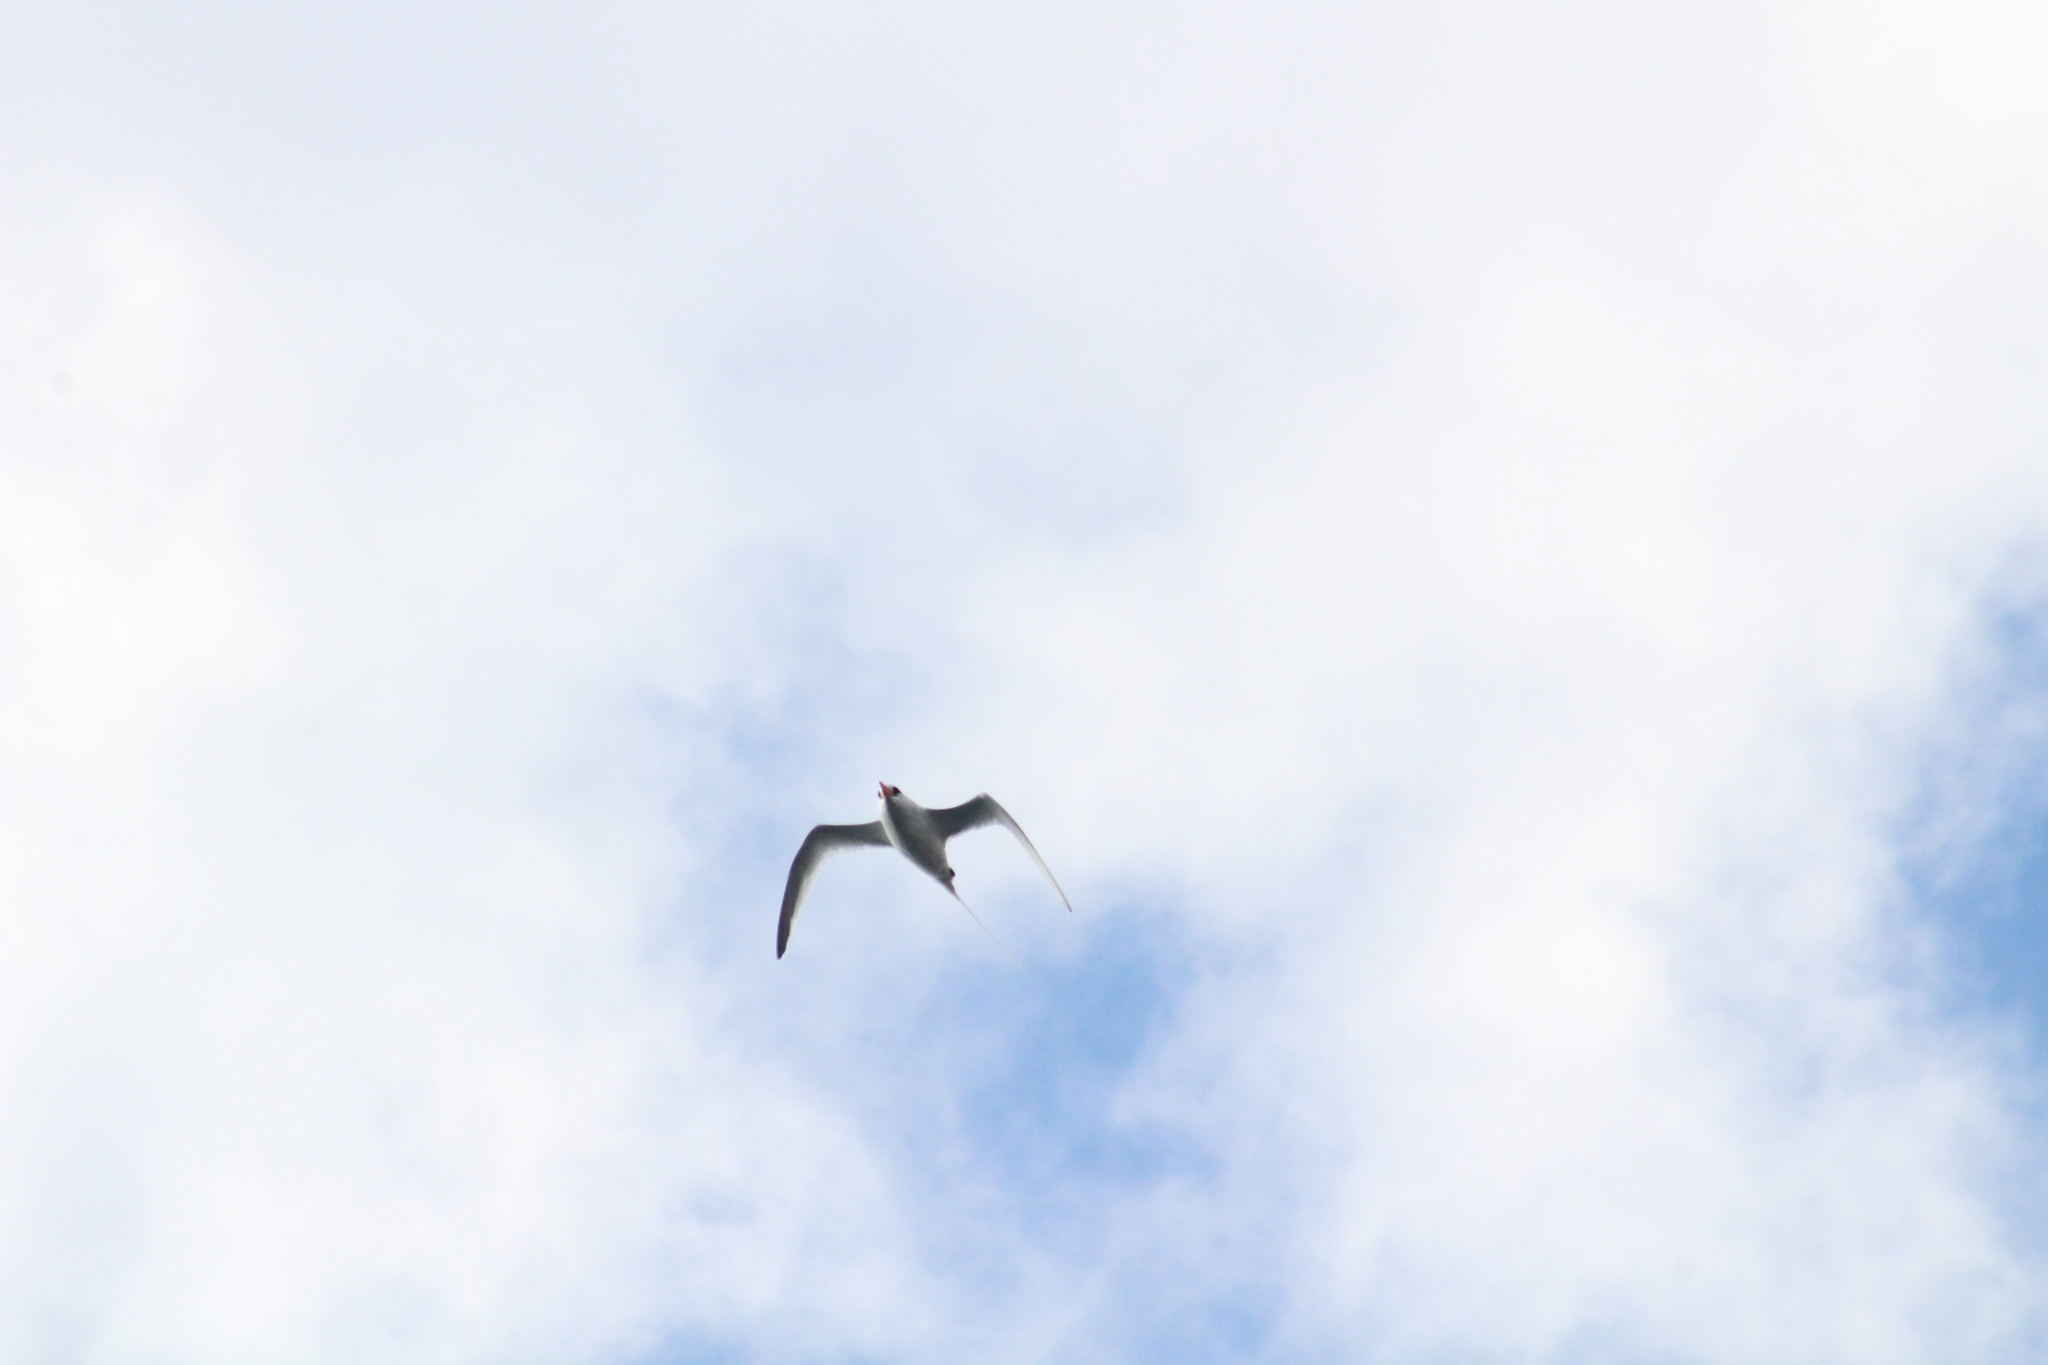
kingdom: Animalia
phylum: Chordata
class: Aves
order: Phaethontiformes
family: Phaethontidae
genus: Phaethon
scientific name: Phaethon aethereus
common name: Red-billed tropicbird
